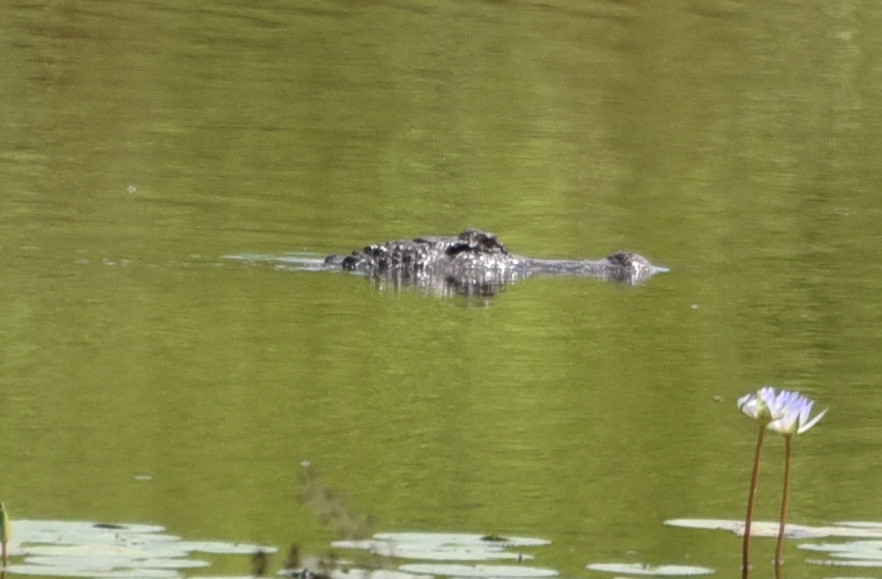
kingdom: Animalia
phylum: Chordata
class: Crocodylia
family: Alligatoridae
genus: Alligator
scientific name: Alligator mississippiensis
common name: American alligator
